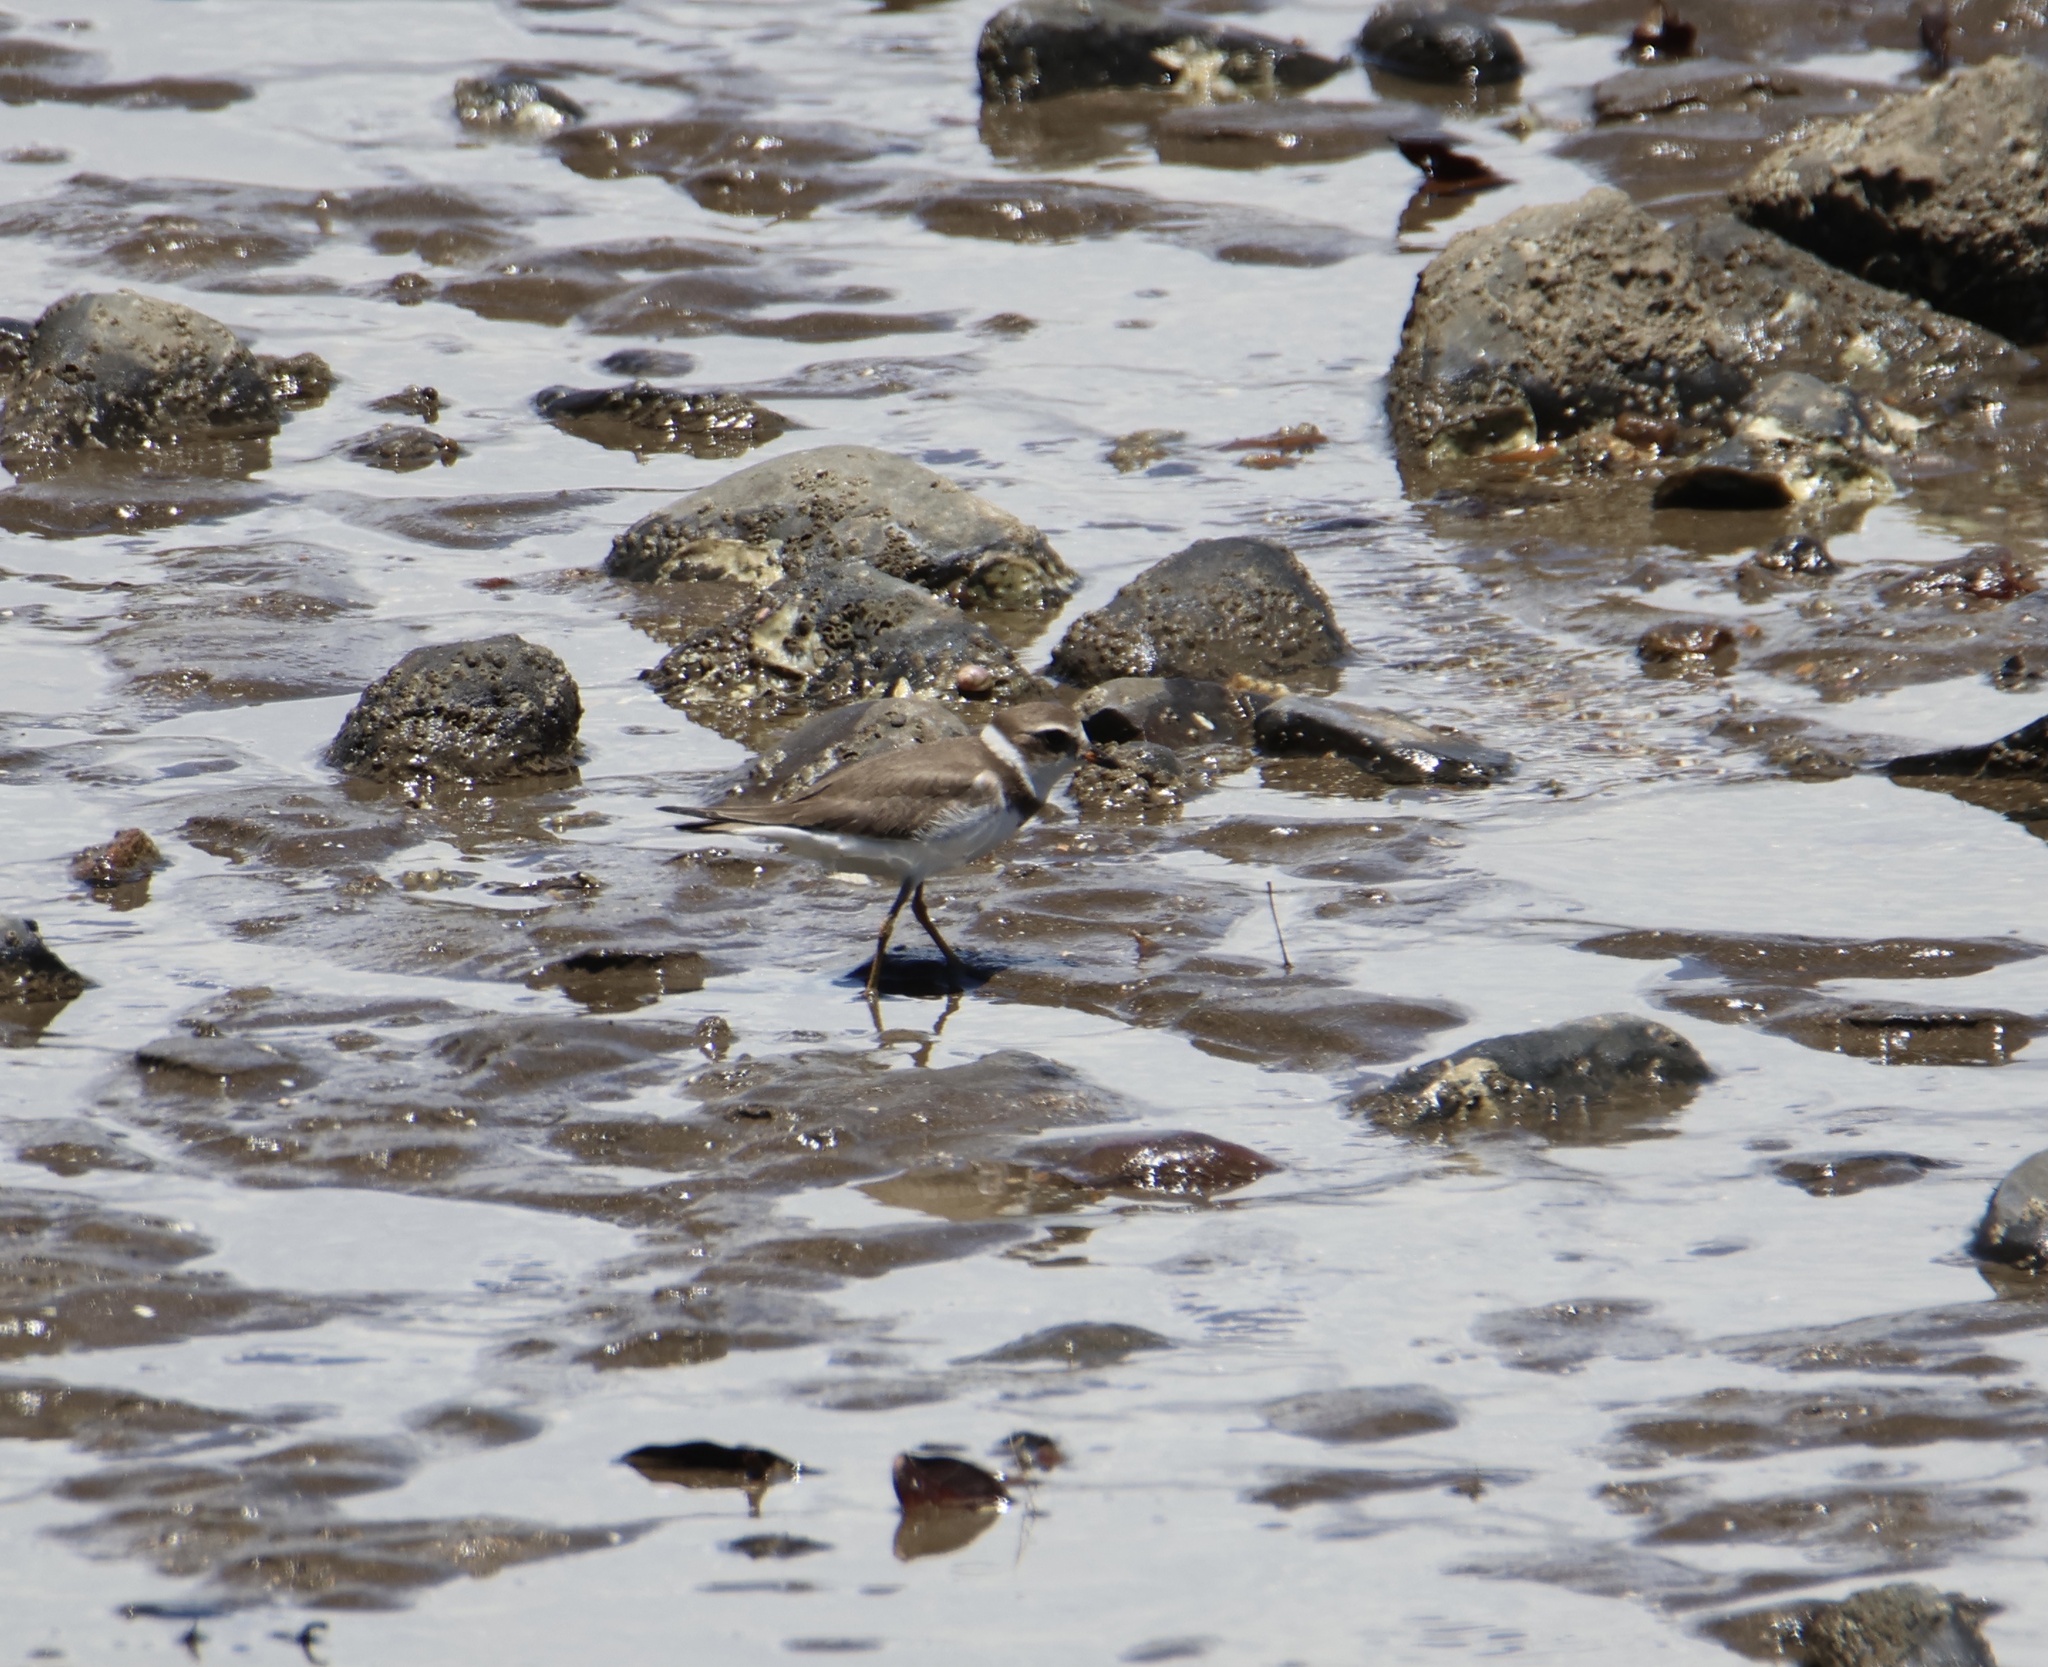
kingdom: Animalia
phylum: Chordata
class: Aves
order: Charadriiformes
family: Charadriidae
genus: Charadrius
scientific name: Charadrius semipalmatus
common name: Semipalmated plover
